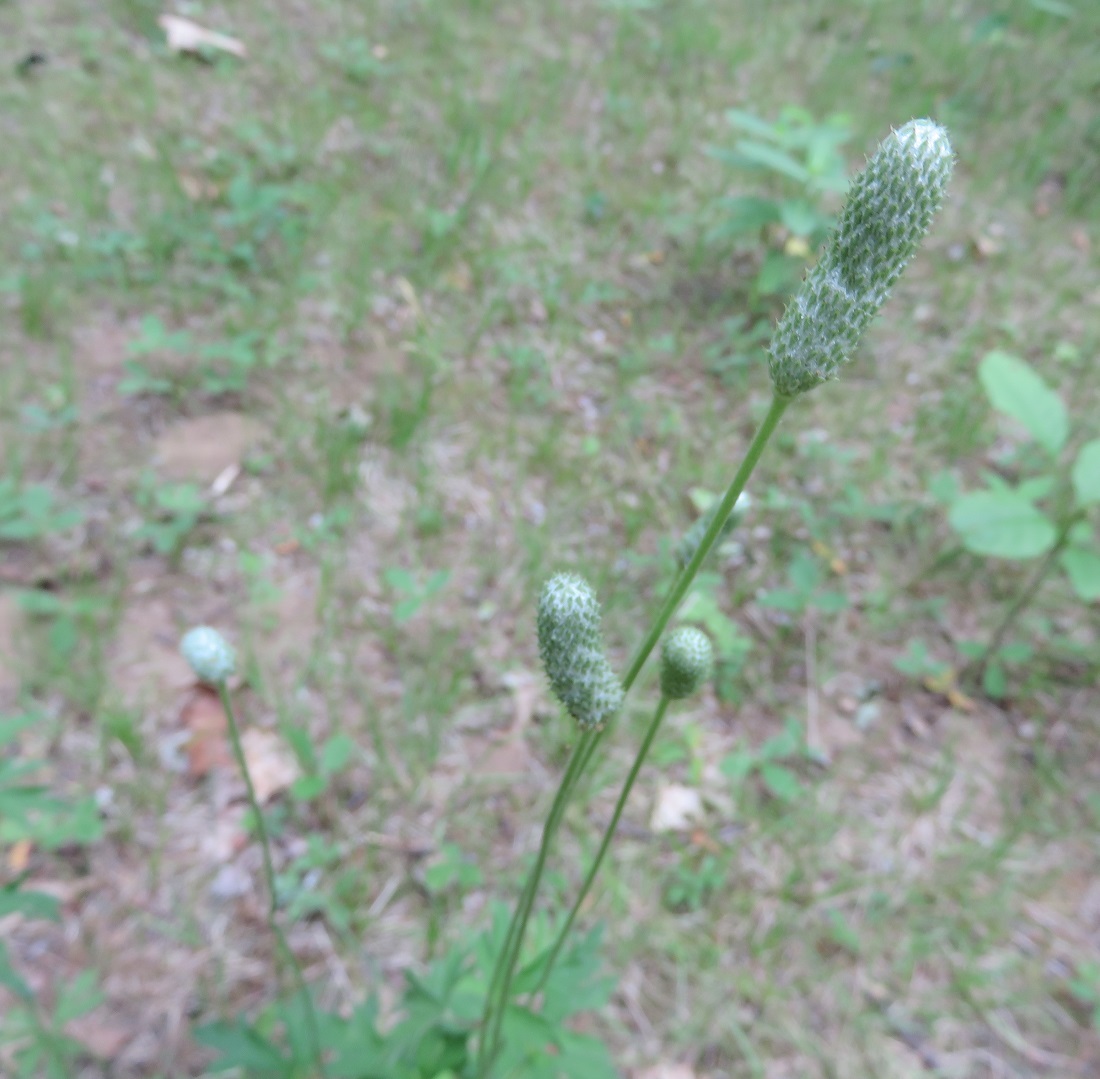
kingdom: Plantae
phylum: Tracheophyta
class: Magnoliopsida
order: Ranunculales
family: Ranunculaceae
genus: Anemone
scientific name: Anemone cylindrica
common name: Candle anemone
